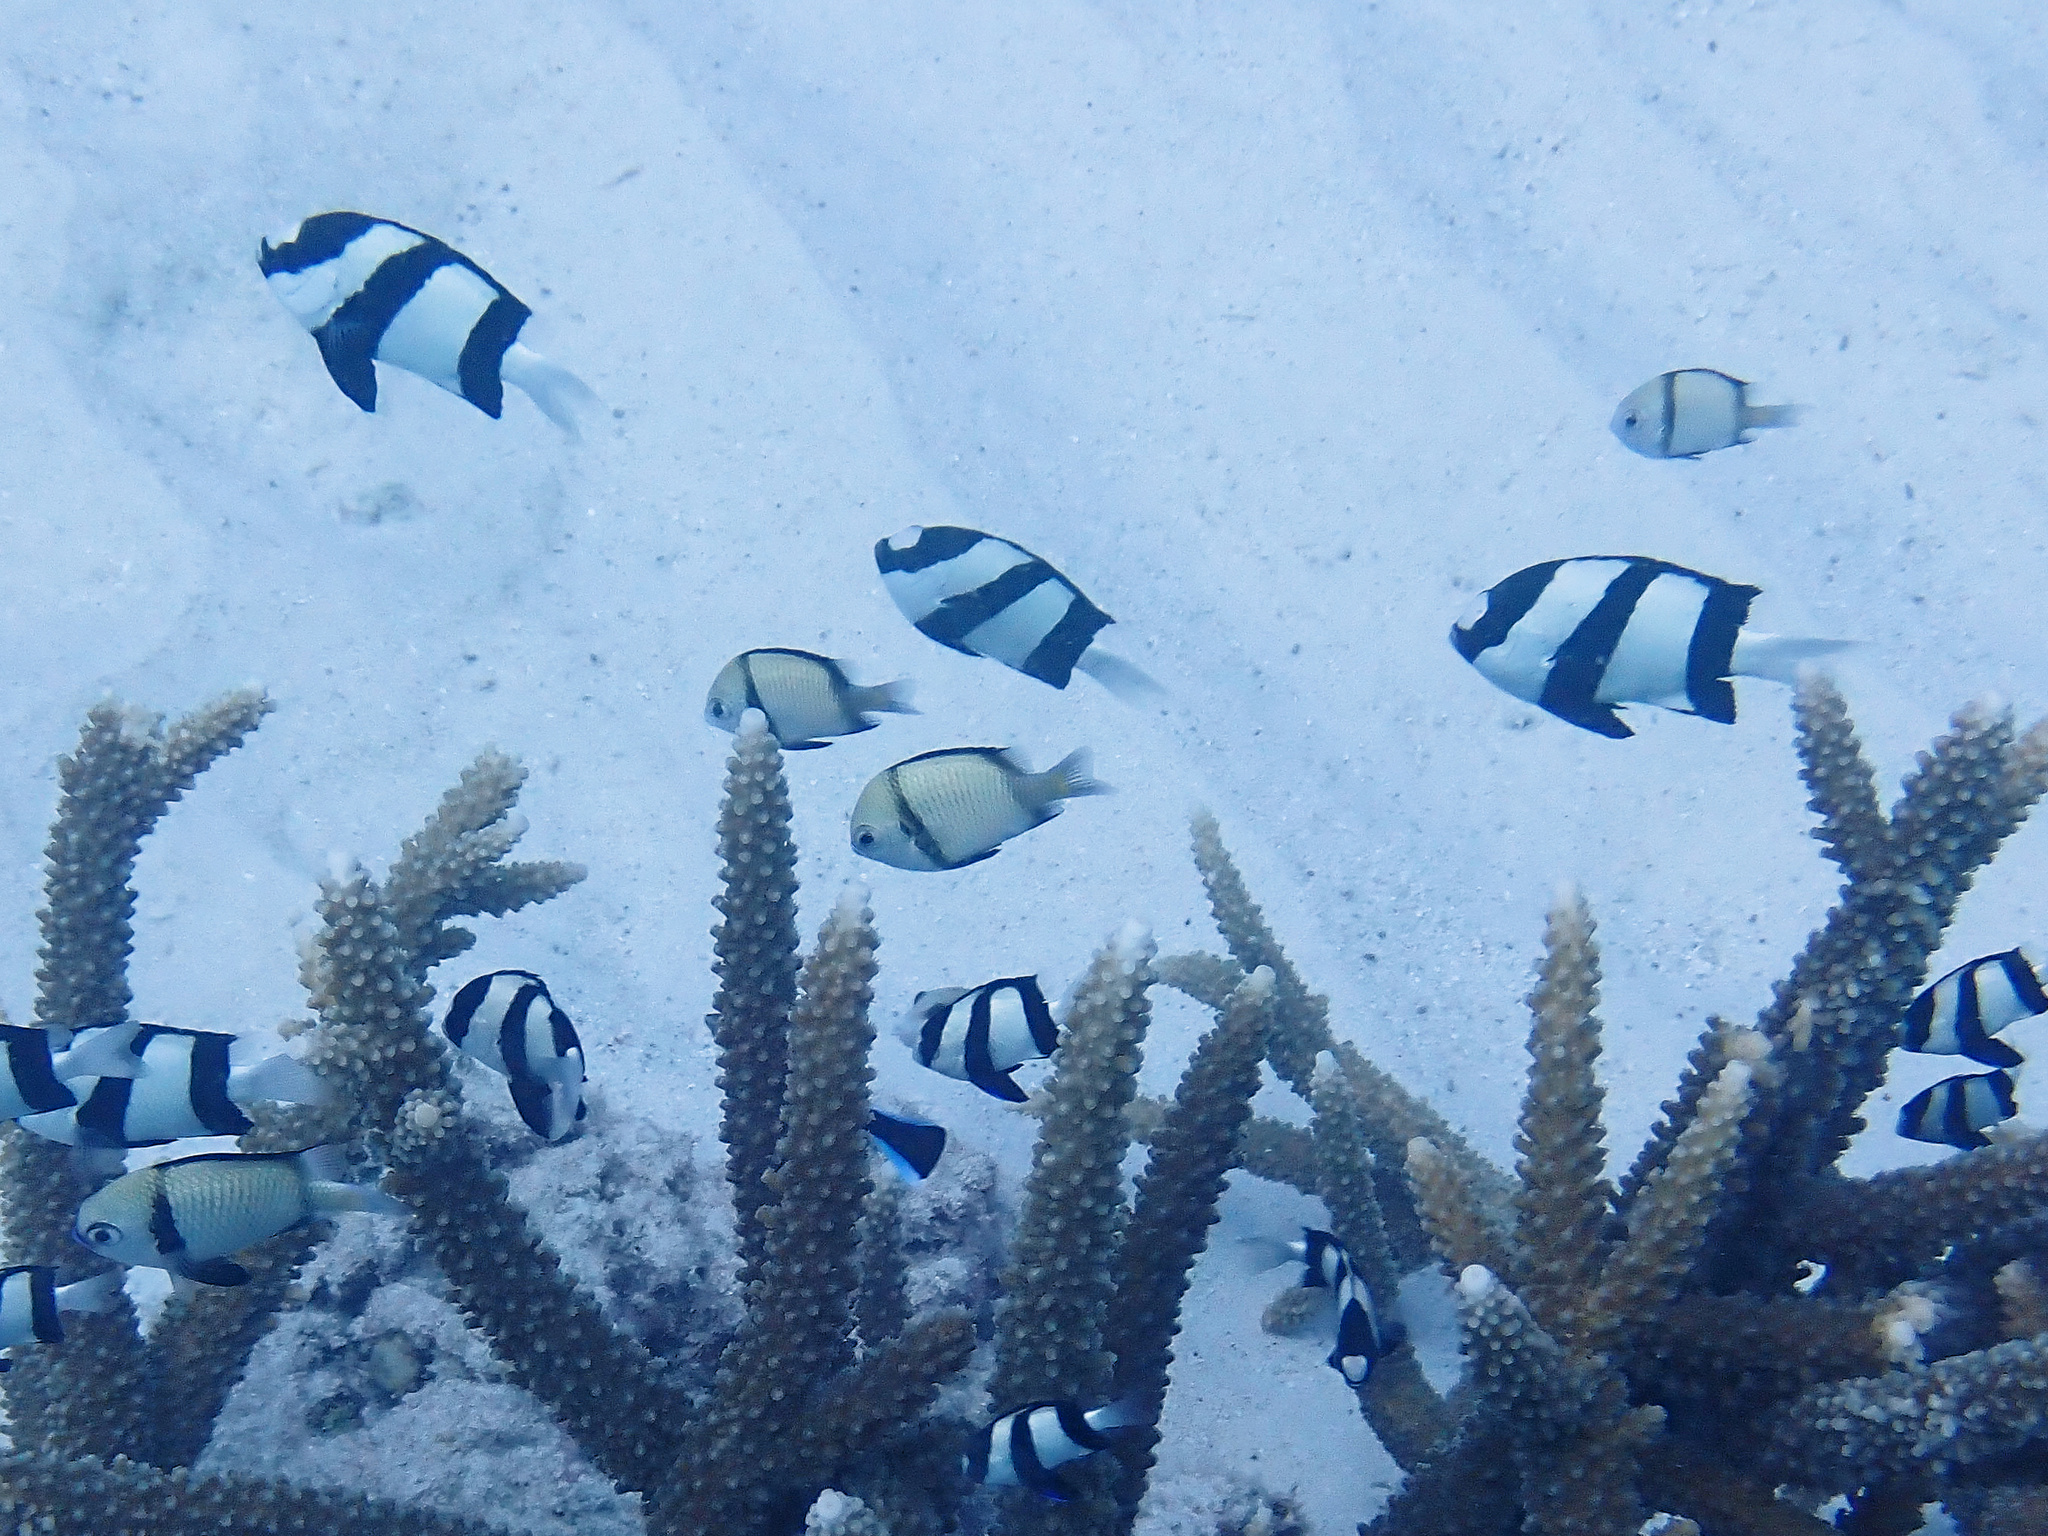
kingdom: Animalia
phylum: Chordata
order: Perciformes
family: Pomacentridae
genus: Dascyllus
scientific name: Dascyllus aruanus
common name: Humbug dascyllus
